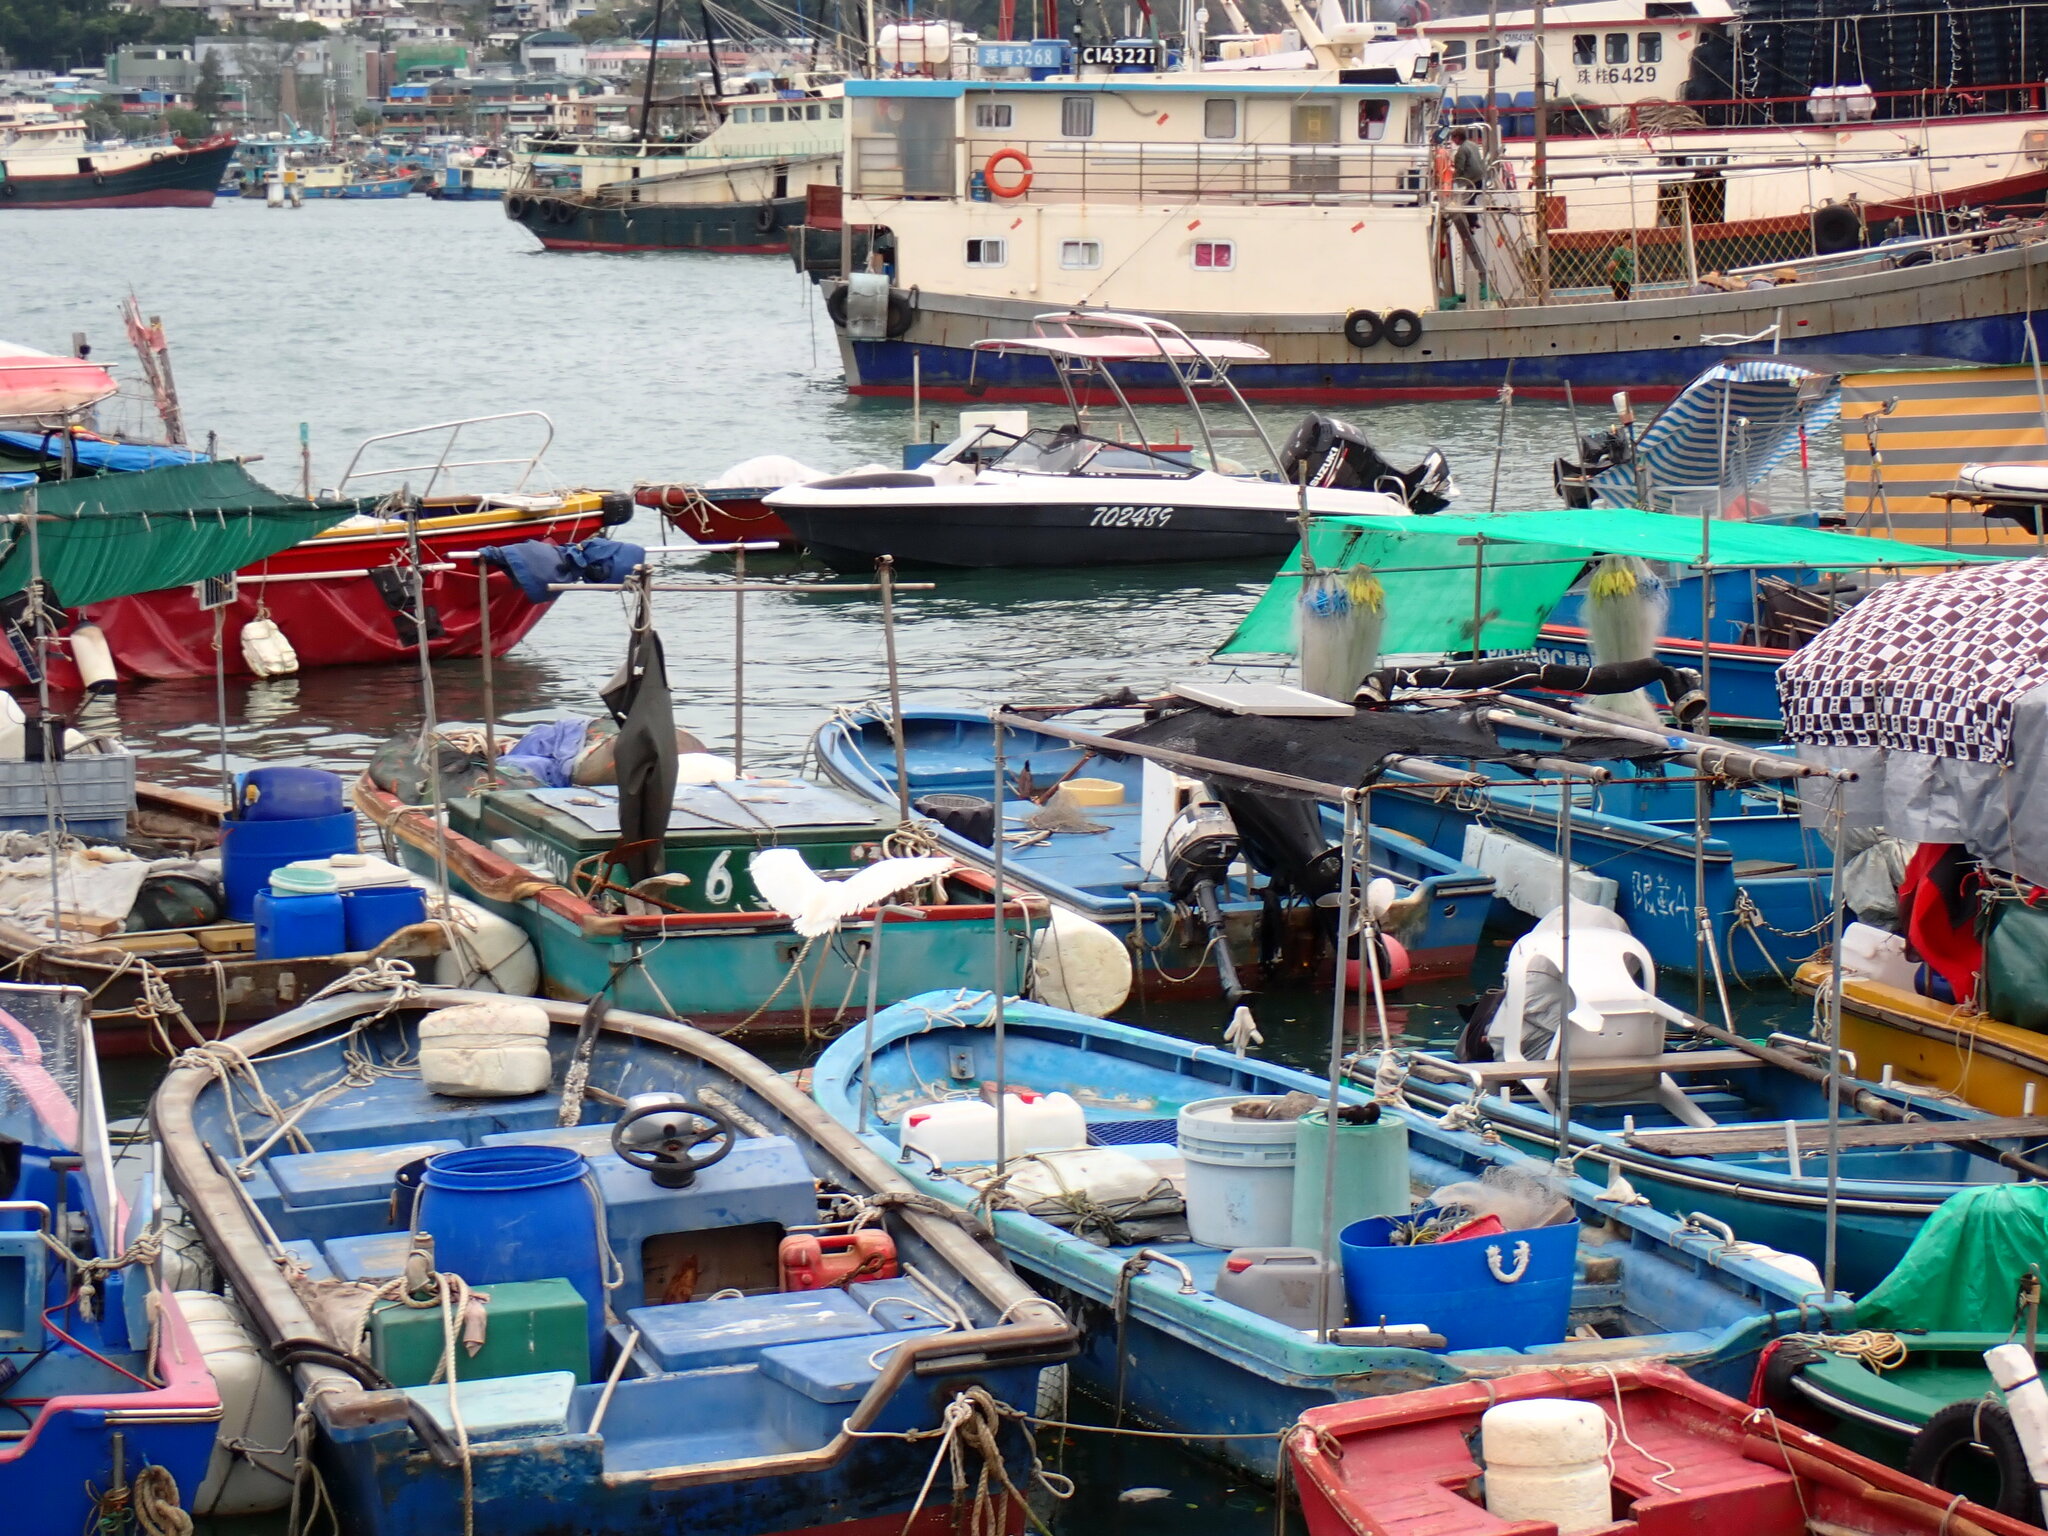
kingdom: Animalia
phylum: Chordata
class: Aves
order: Pelecaniformes
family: Ardeidae
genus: Egretta
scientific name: Egretta garzetta
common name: Little egret
